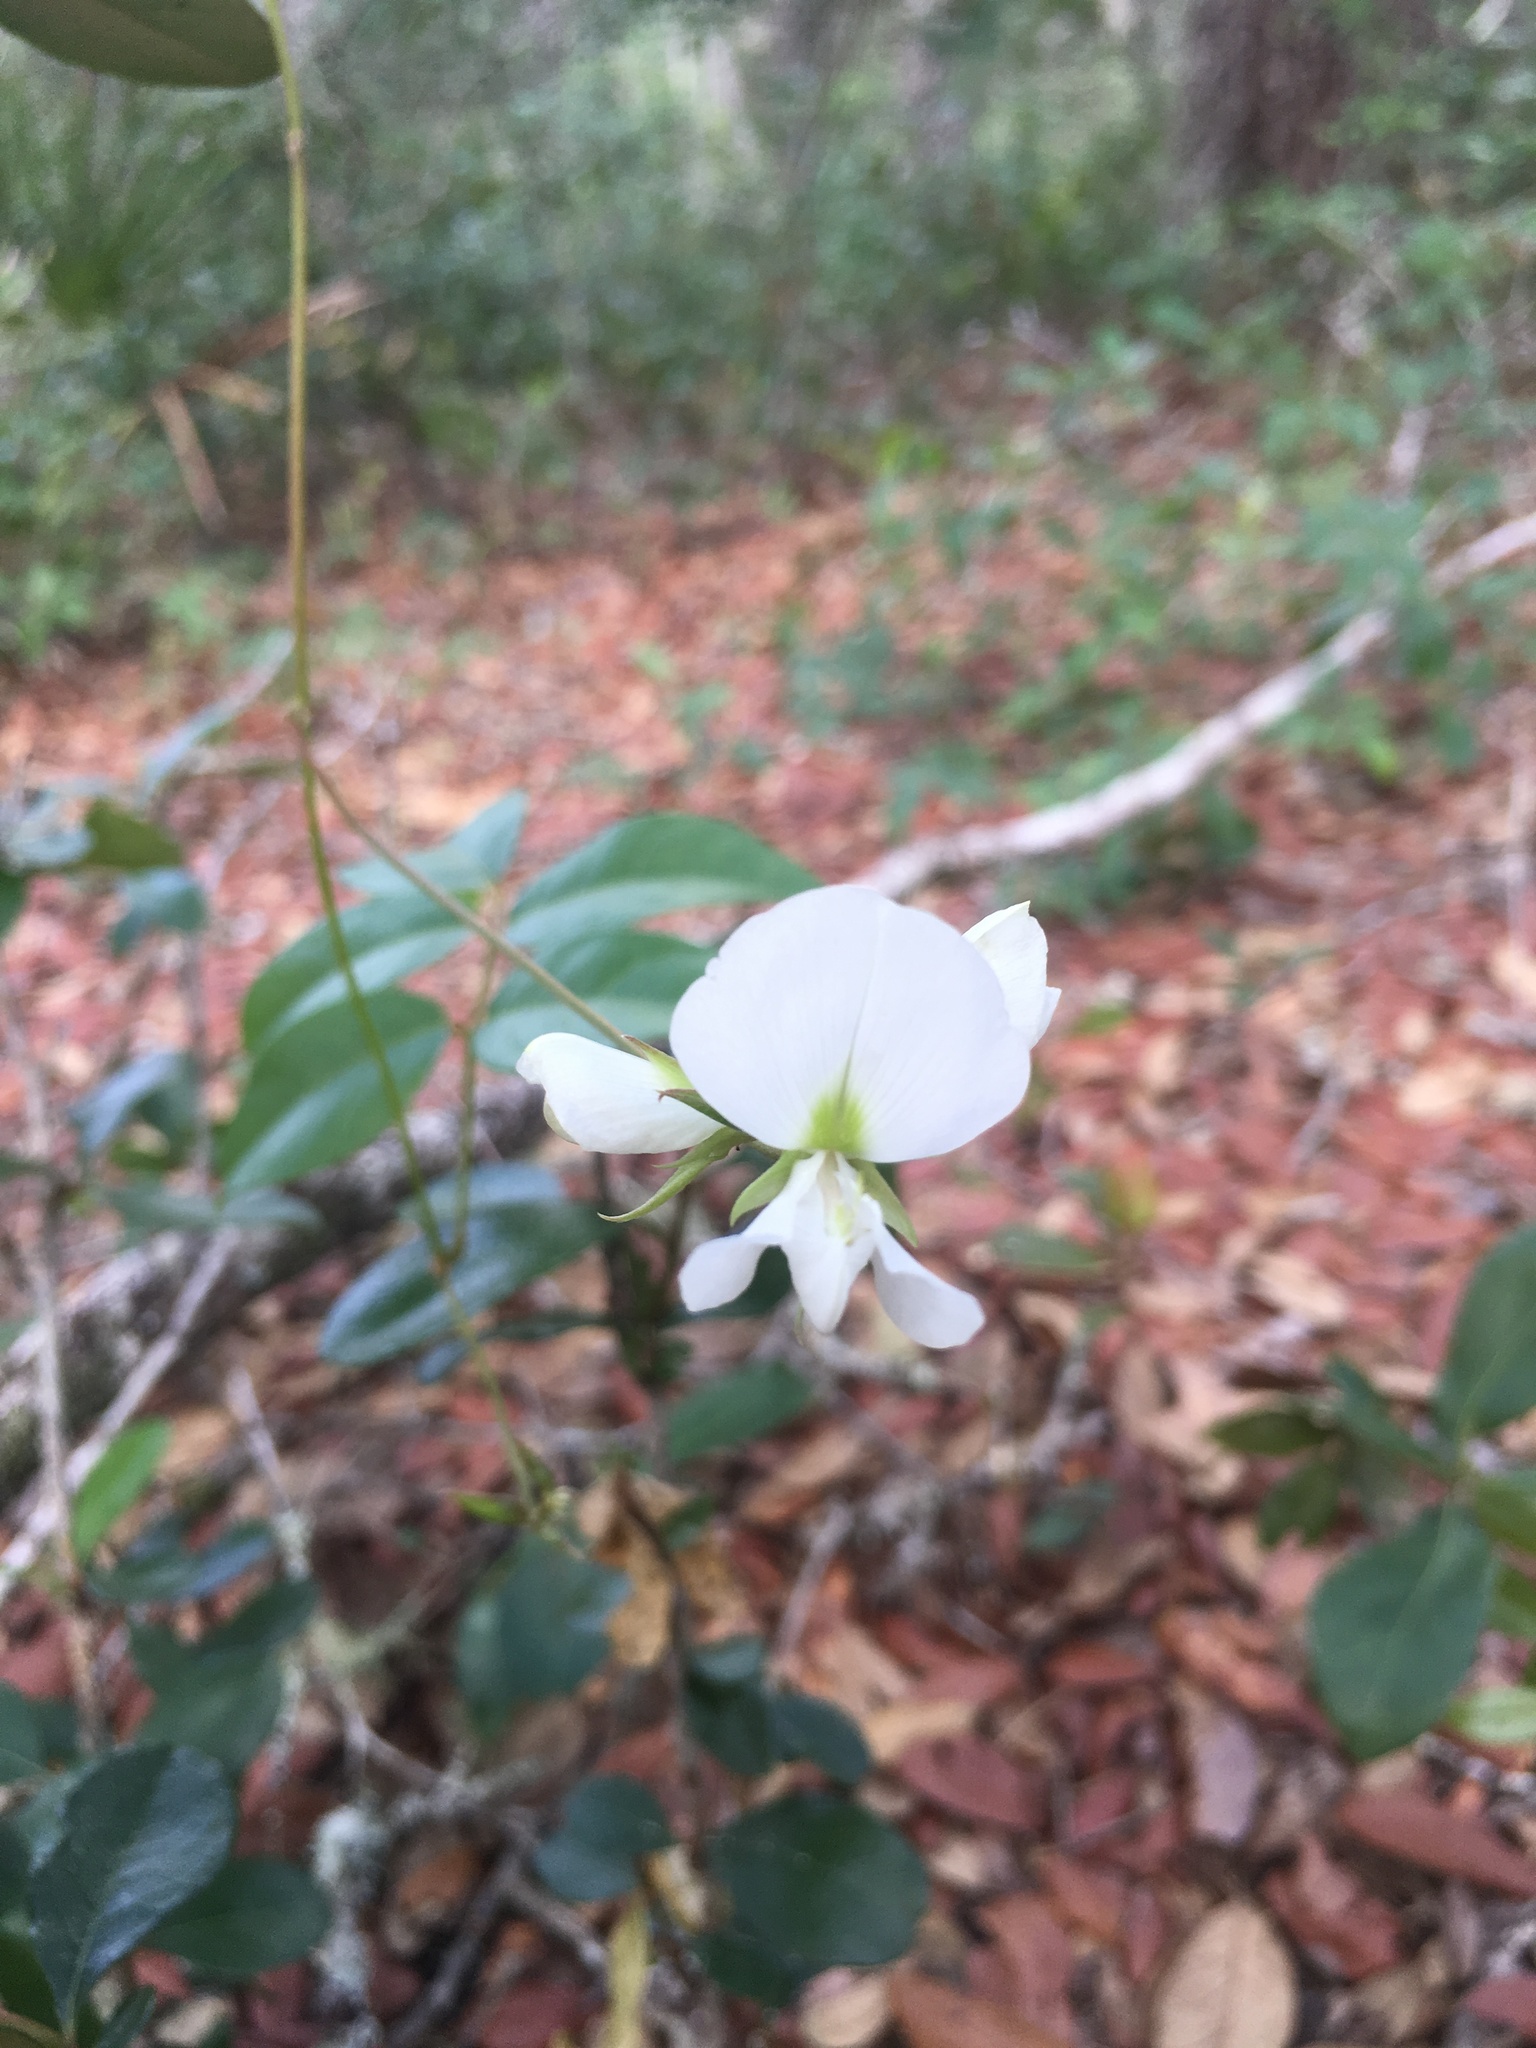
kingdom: Plantae
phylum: Tracheophyta
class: Magnoliopsida
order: Fabales
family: Fabaceae
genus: Galactia
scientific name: Galactia elliottii
